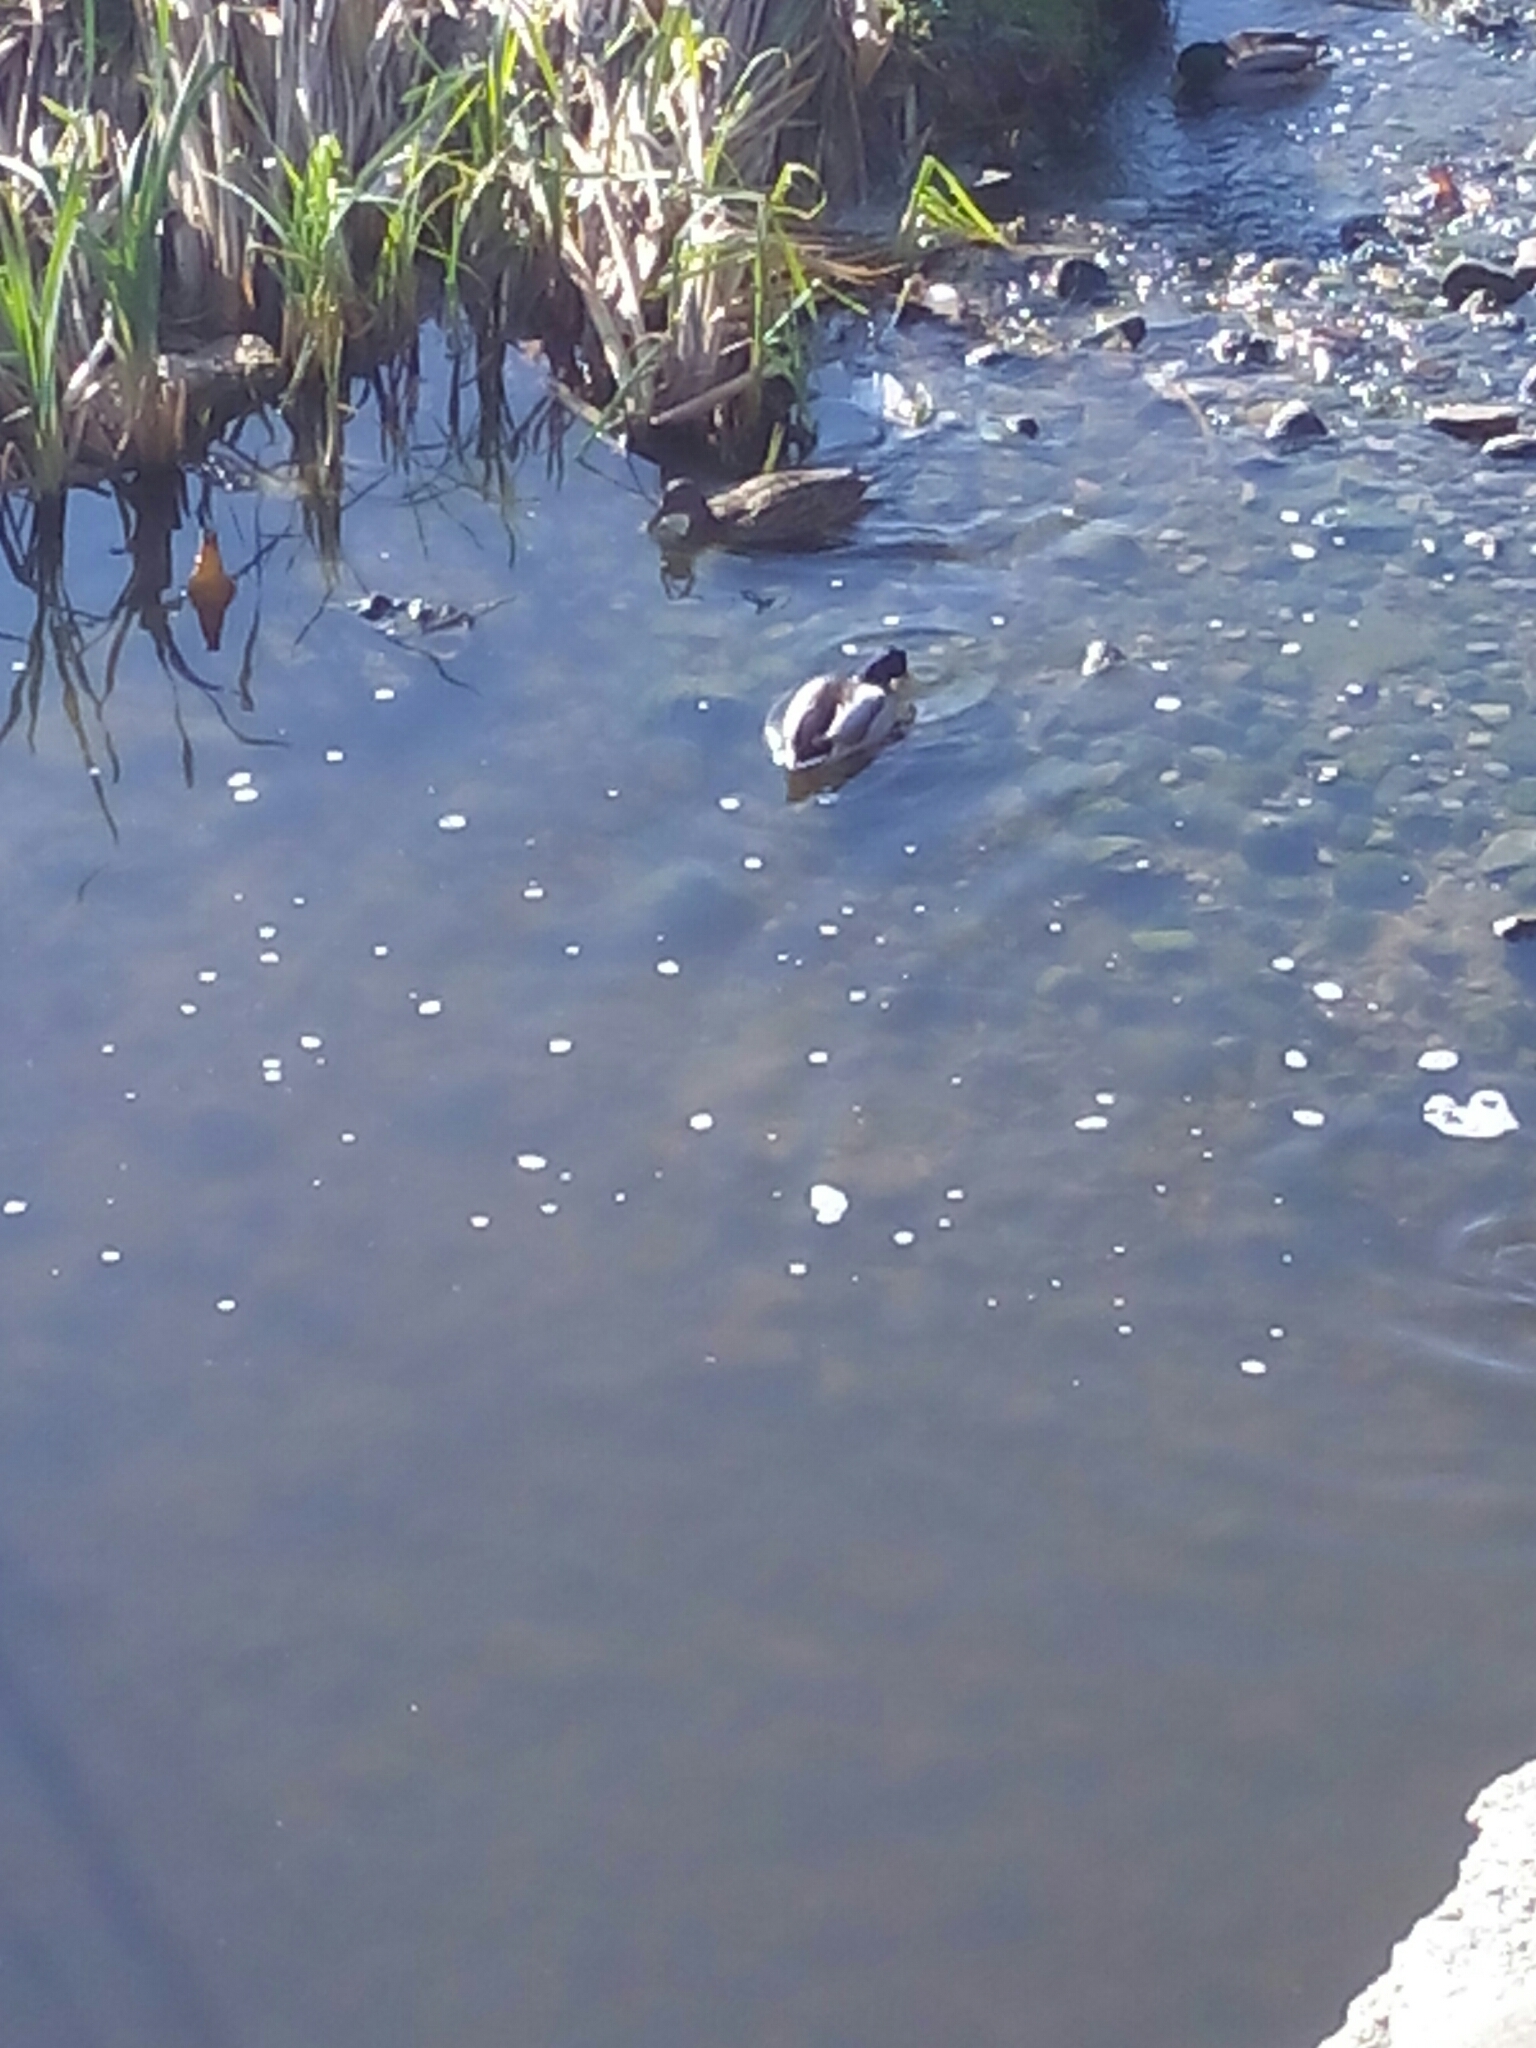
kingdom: Animalia
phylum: Chordata
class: Aves
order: Anseriformes
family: Anatidae
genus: Anas
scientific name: Anas platyrhynchos
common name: Mallard
